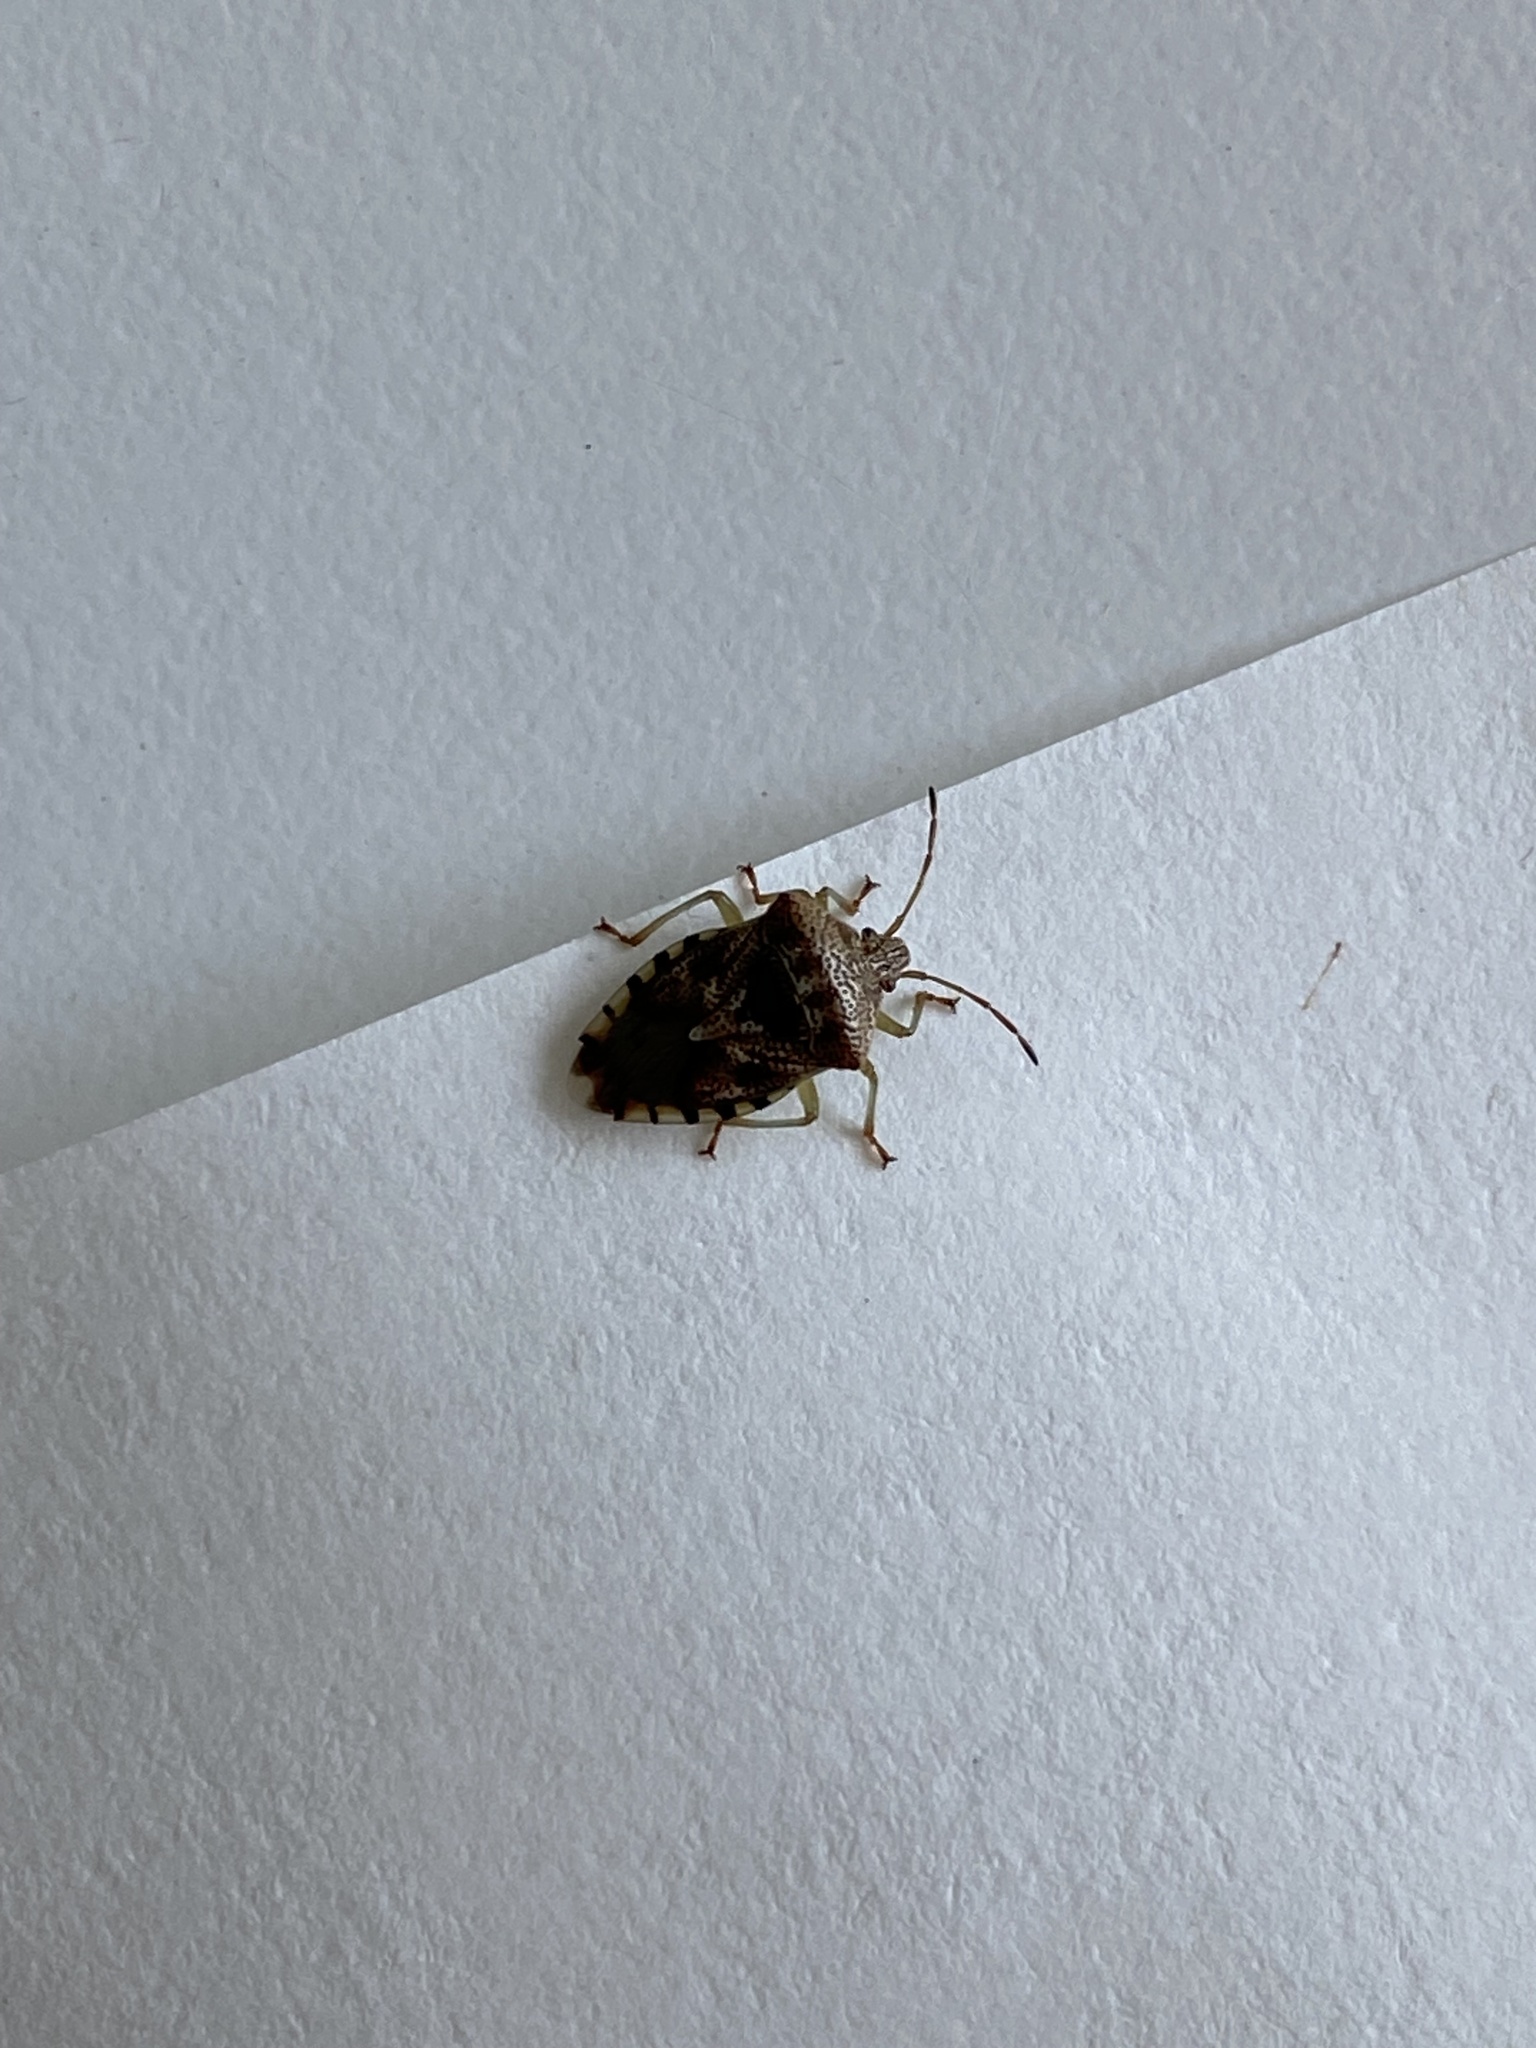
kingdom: Animalia
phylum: Arthropoda
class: Insecta
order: Hemiptera
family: Acanthosomatidae
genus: Elasmucha
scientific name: Elasmucha grisea
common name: Parent bug
